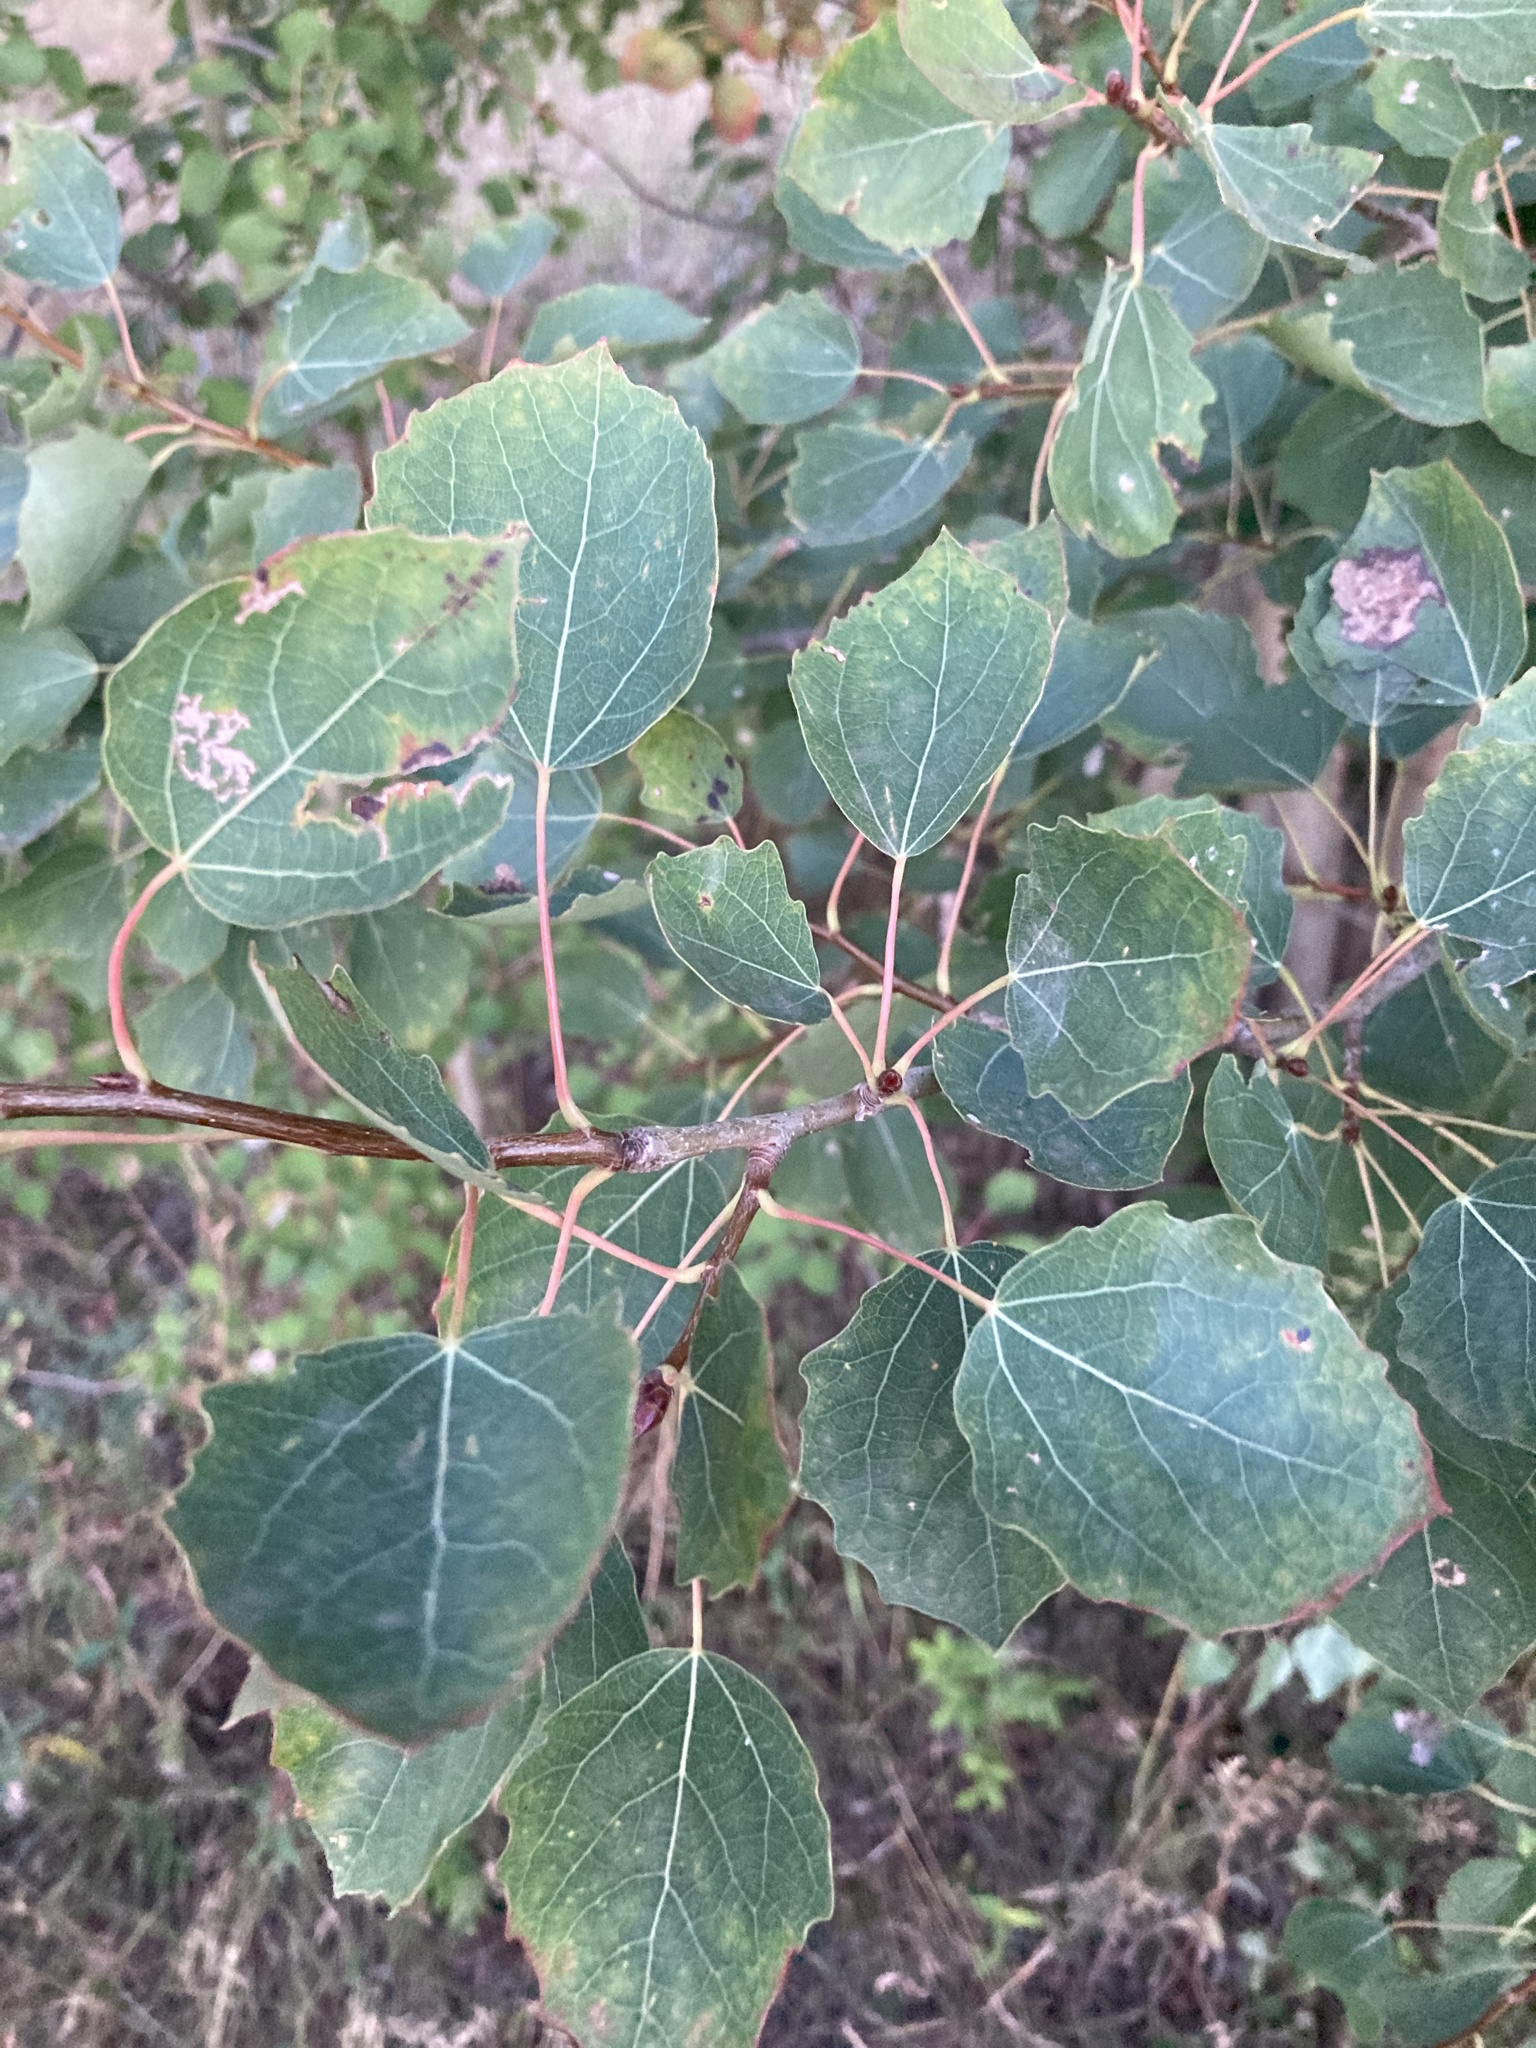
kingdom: Plantae
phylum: Tracheophyta
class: Magnoliopsida
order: Malpighiales
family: Salicaceae
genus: Populus
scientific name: Populus tremula
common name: European aspen
